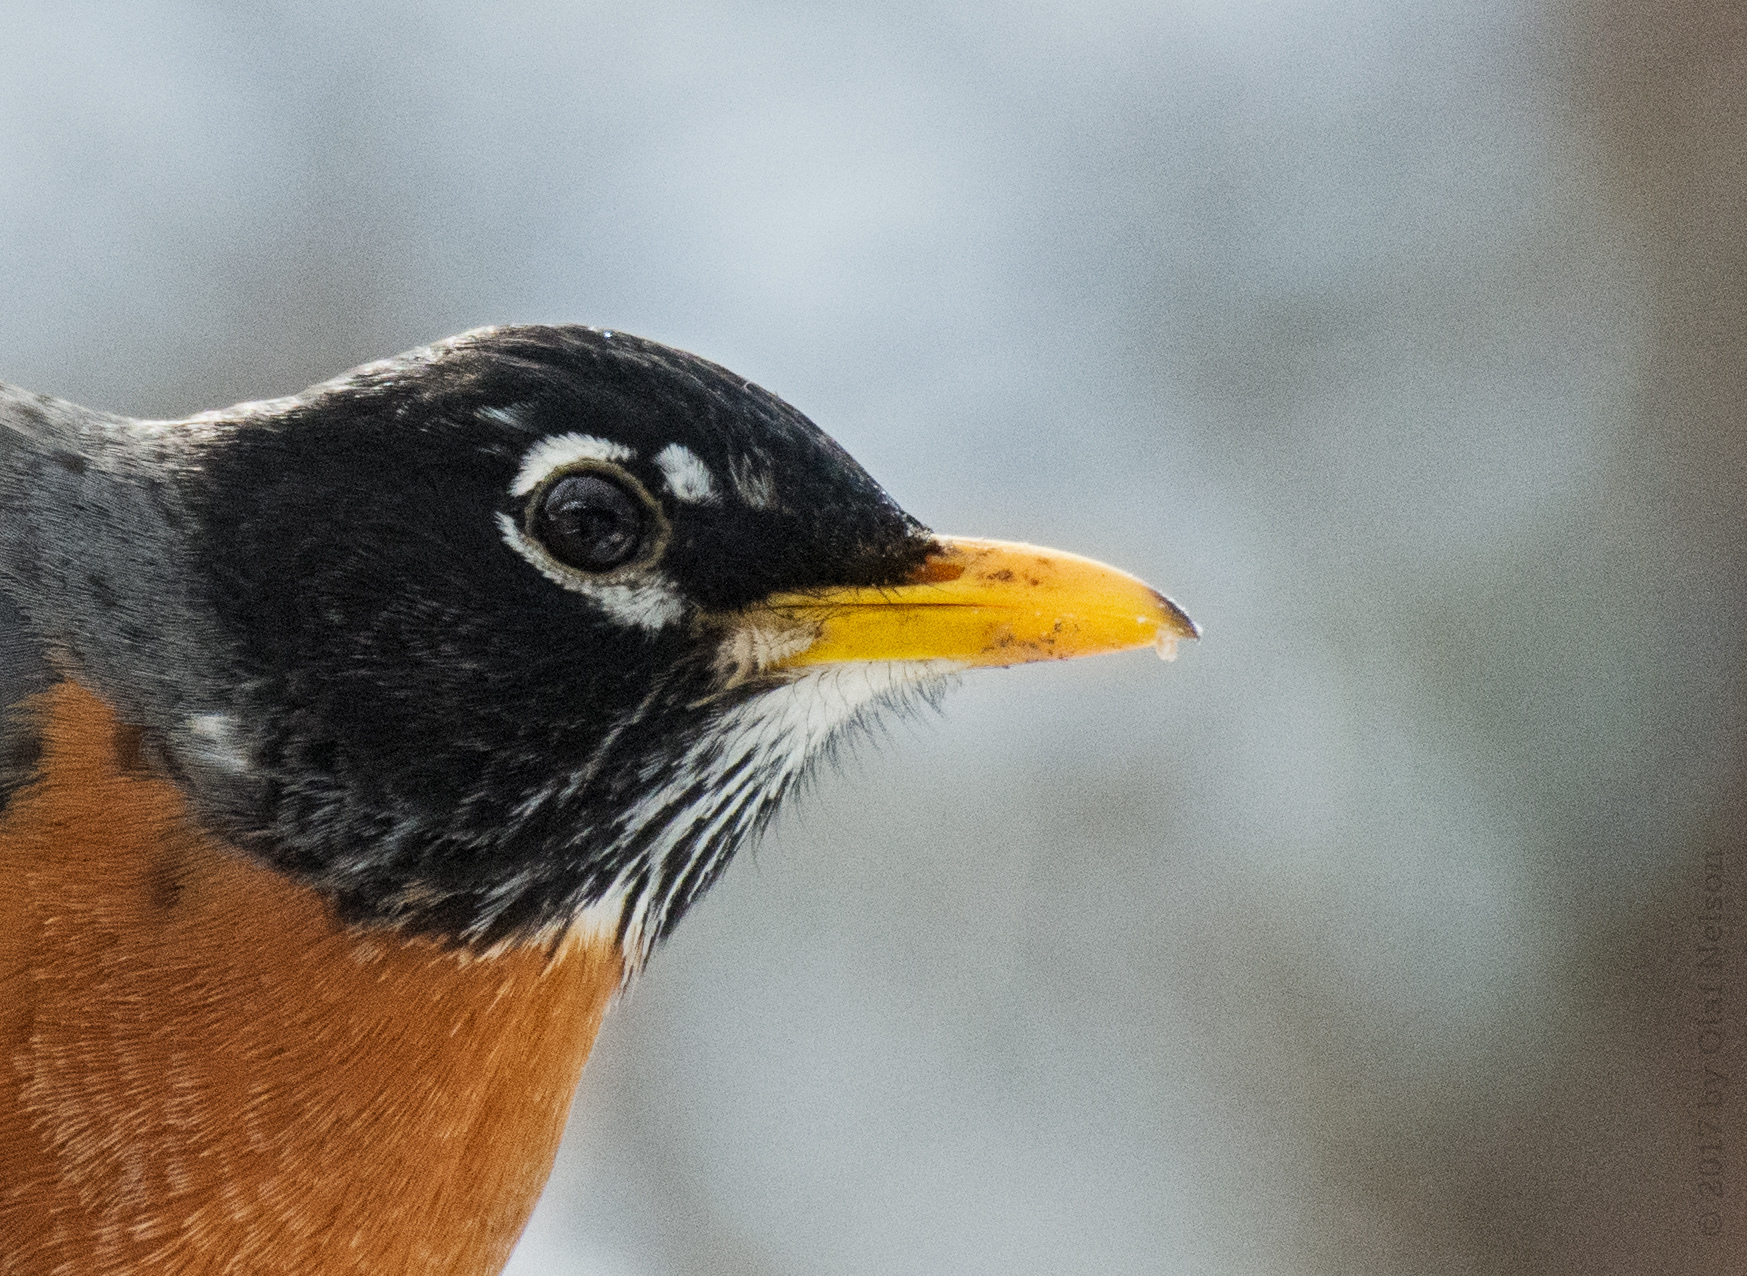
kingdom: Animalia
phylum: Chordata
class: Aves
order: Passeriformes
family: Turdidae
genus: Turdus
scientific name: Turdus migratorius
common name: American robin
